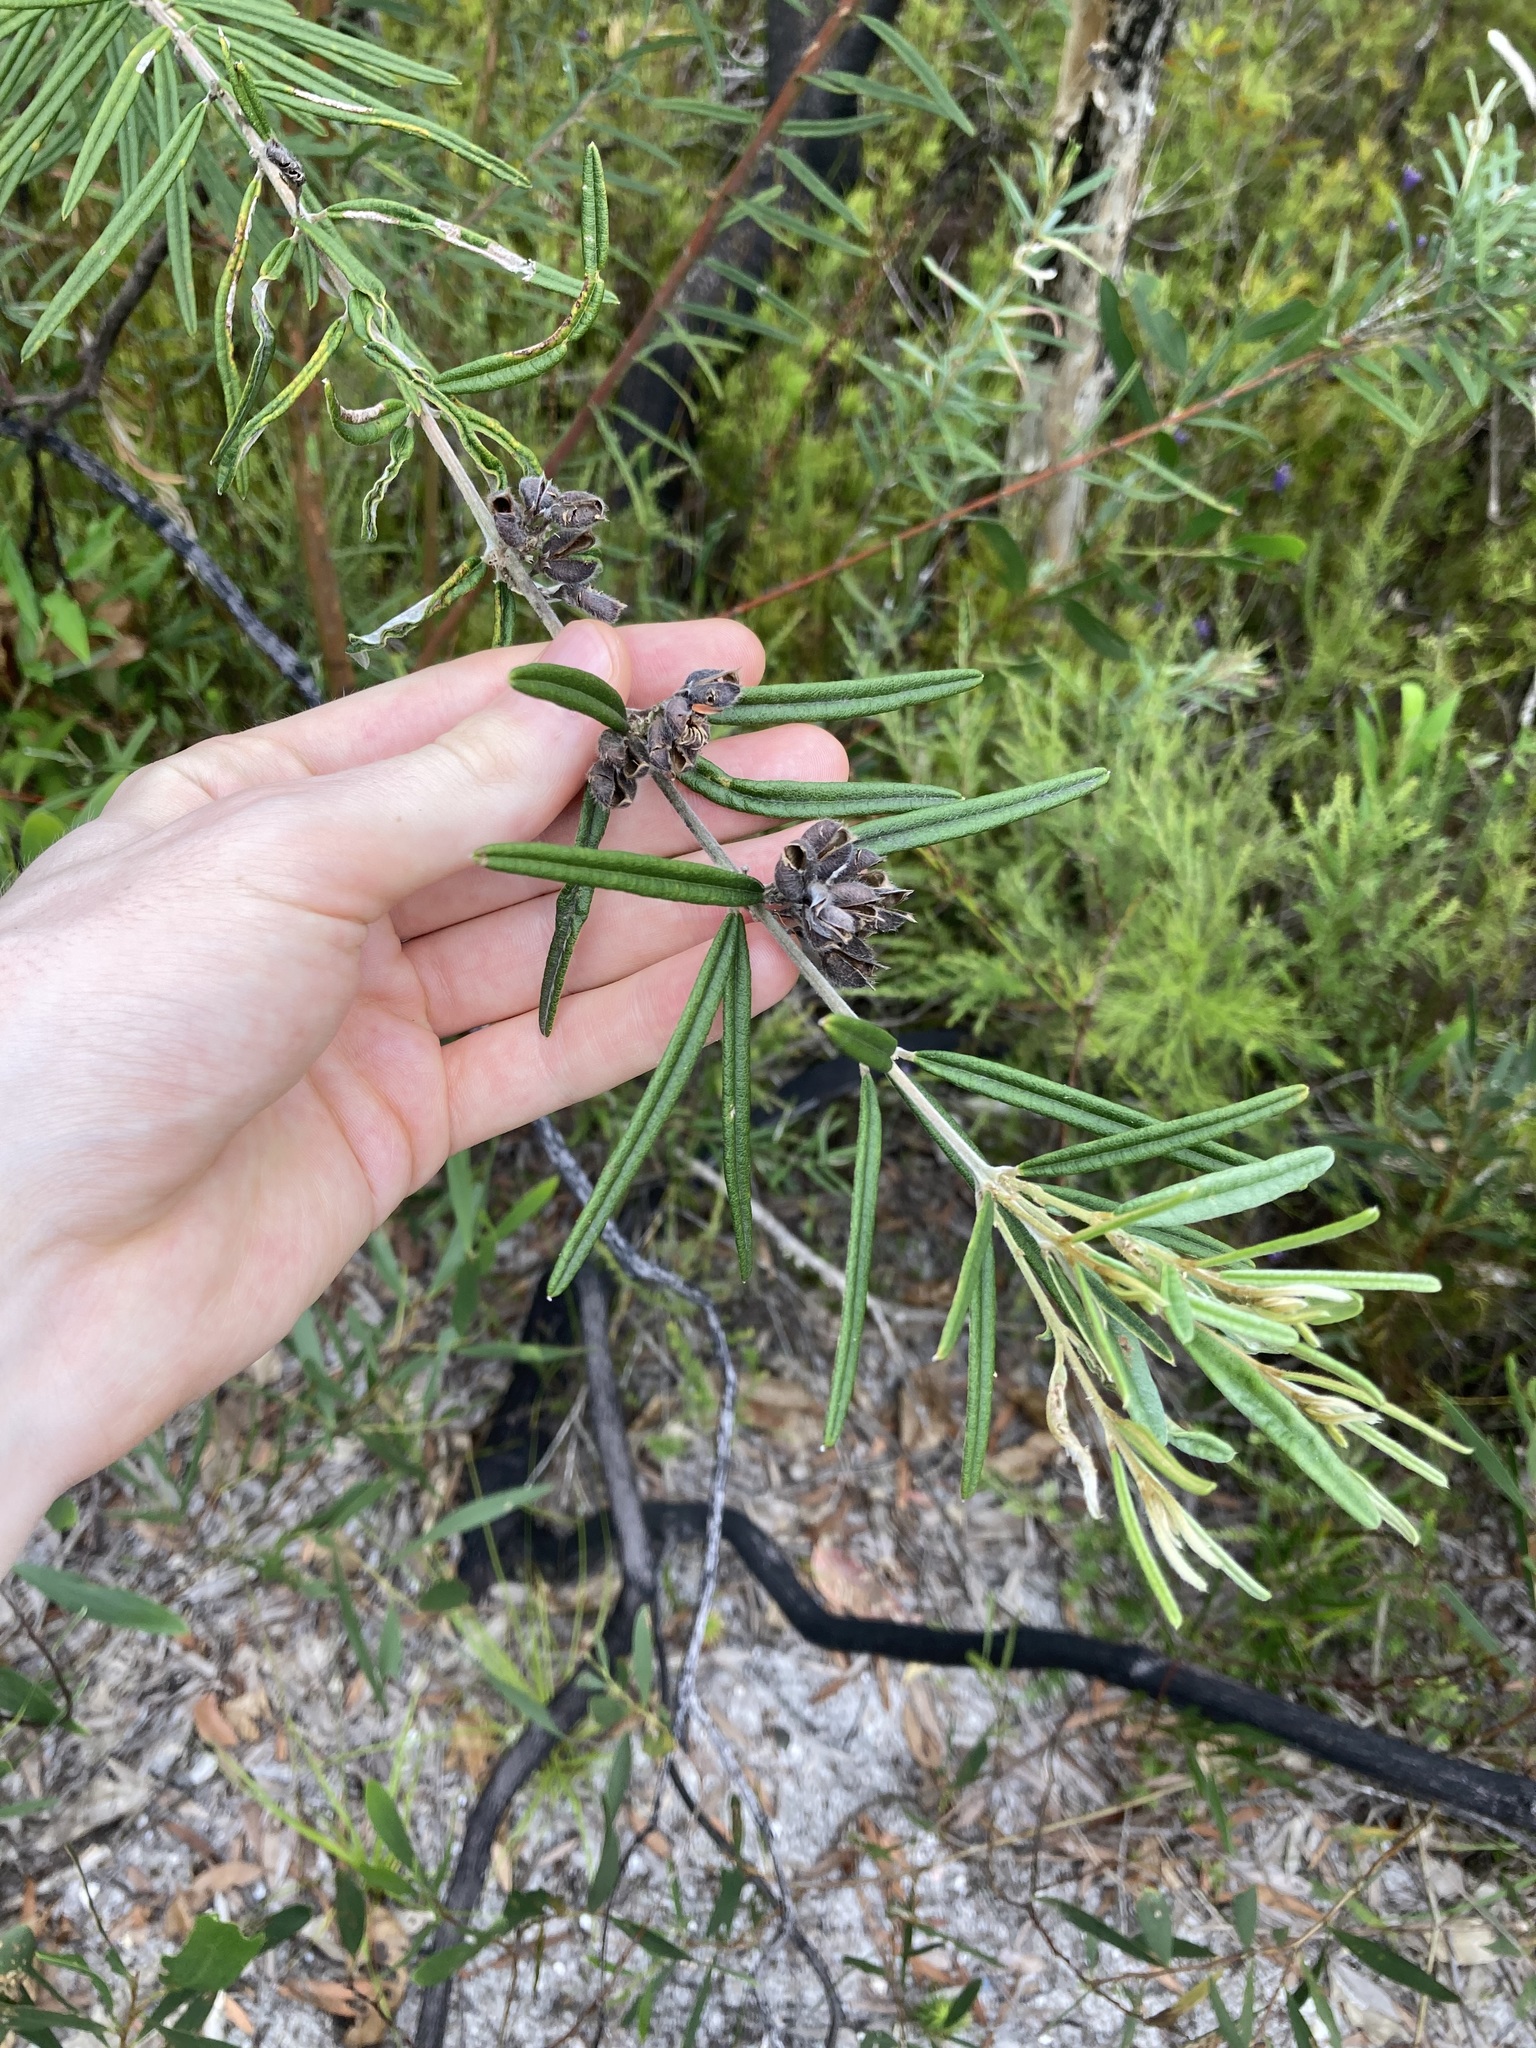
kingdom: Plantae
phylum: Tracheophyta
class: Magnoliopsida
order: Fabales
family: Fabaceae
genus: Oxylobium
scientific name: Oxylobium robustum
